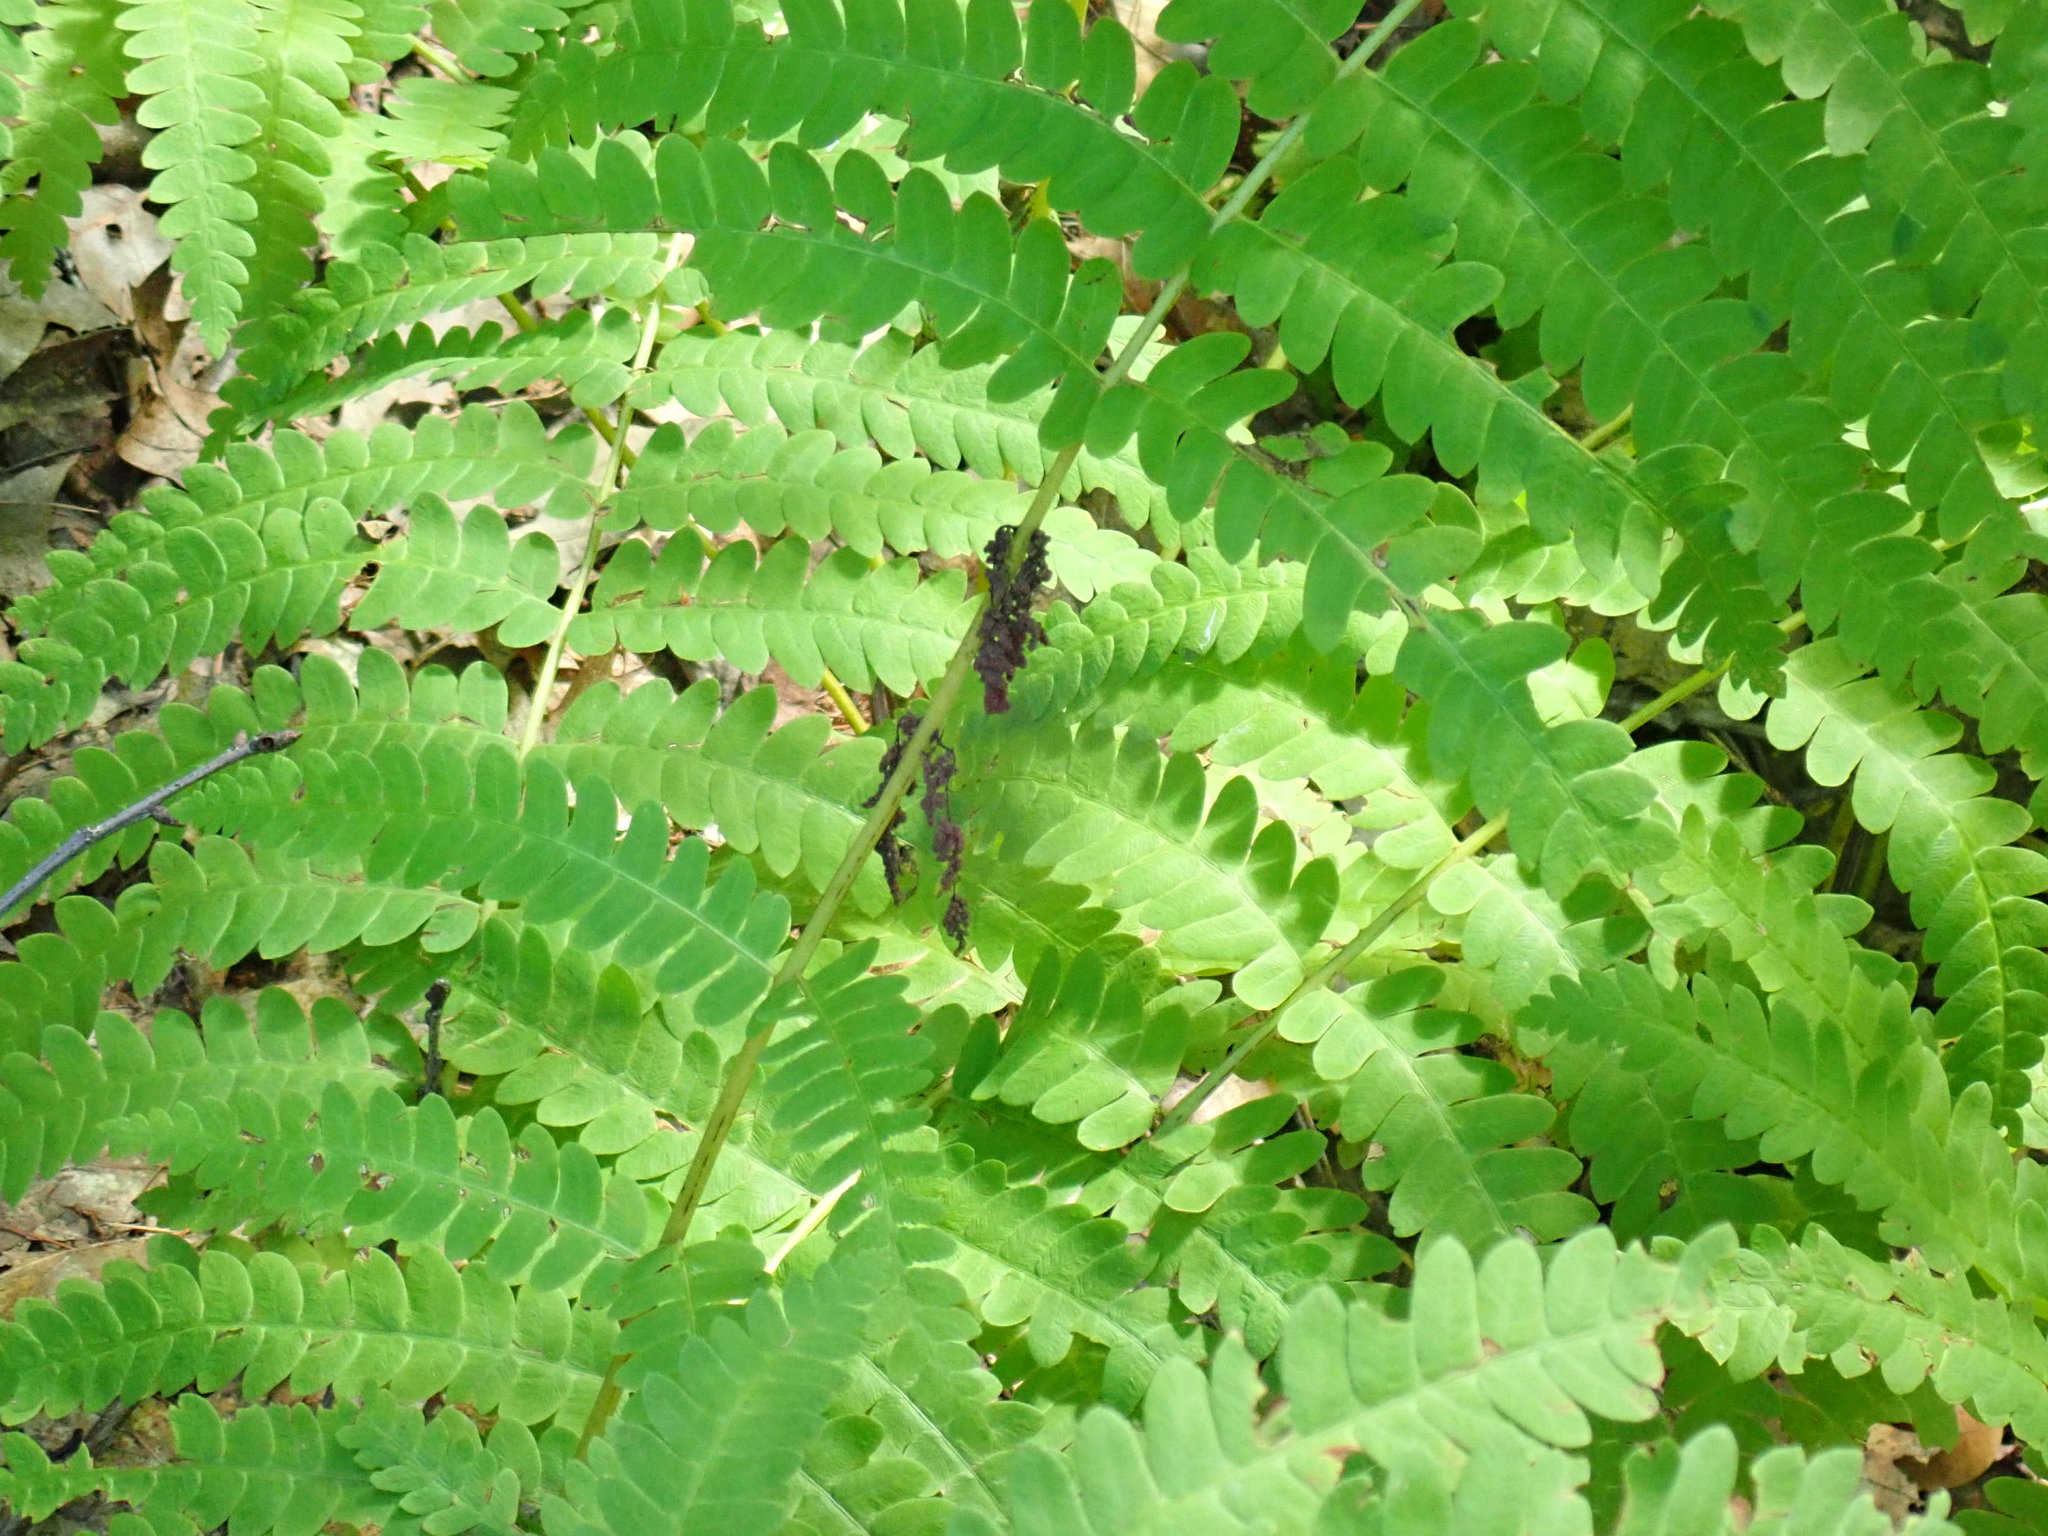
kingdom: Plantae
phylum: Tracheophyta
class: Polypodiopsida
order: Osmundales
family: Osmundaceae
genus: Claytosmunda
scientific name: Claytosmunda claytoniana
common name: Clayton's fern
